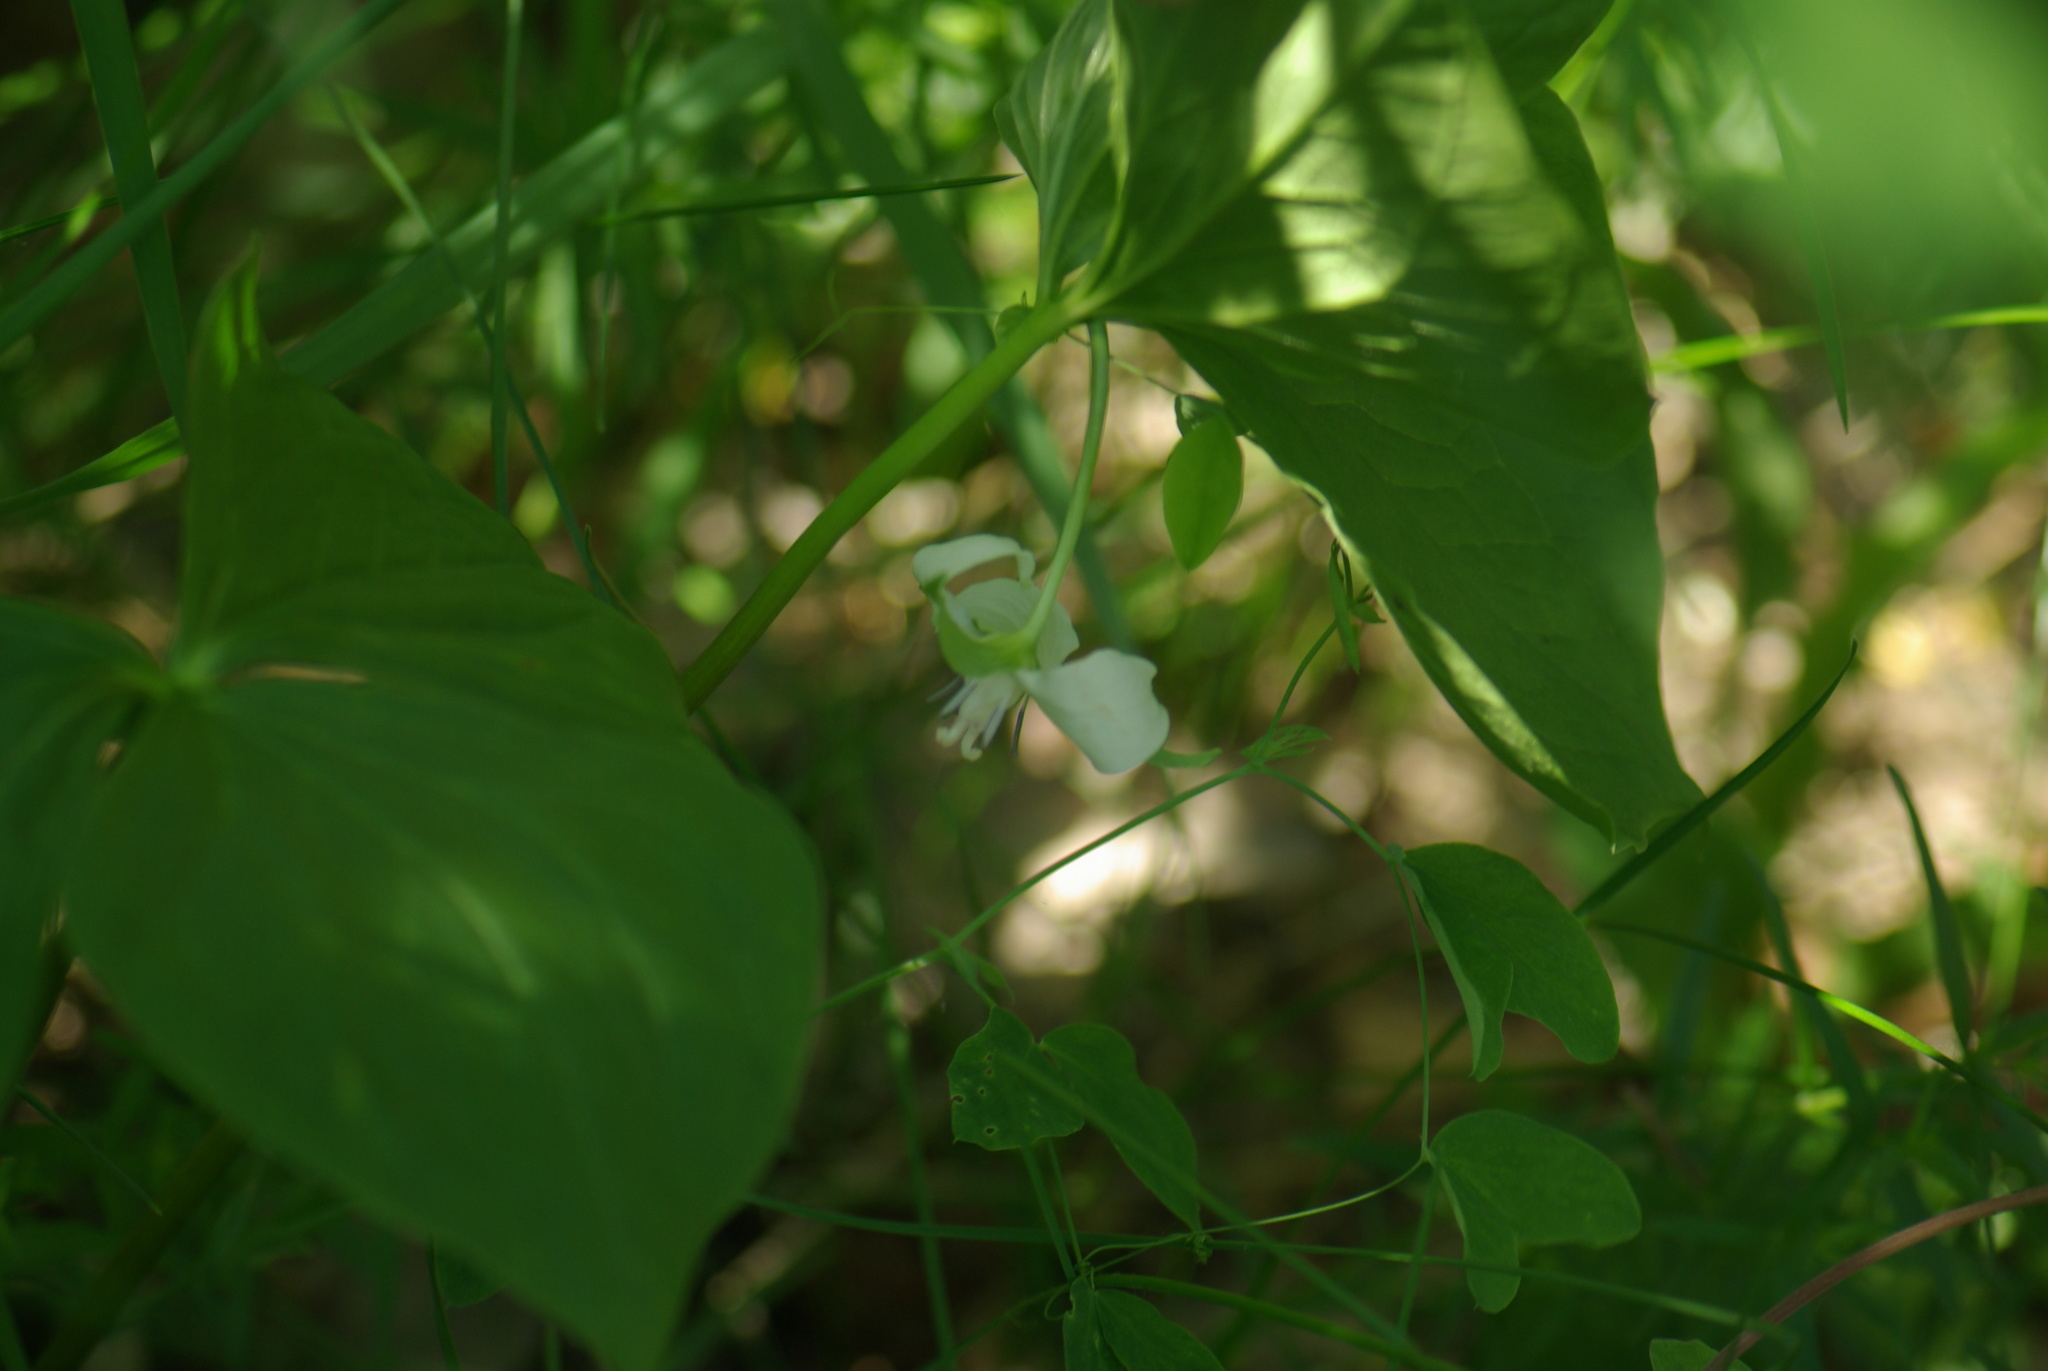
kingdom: Plantae
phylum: Tracheophyta
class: Liliopsida
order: Liliales
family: Melanthiaceae
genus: Trillium
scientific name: Trillium cernuum
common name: Nodding trillium
